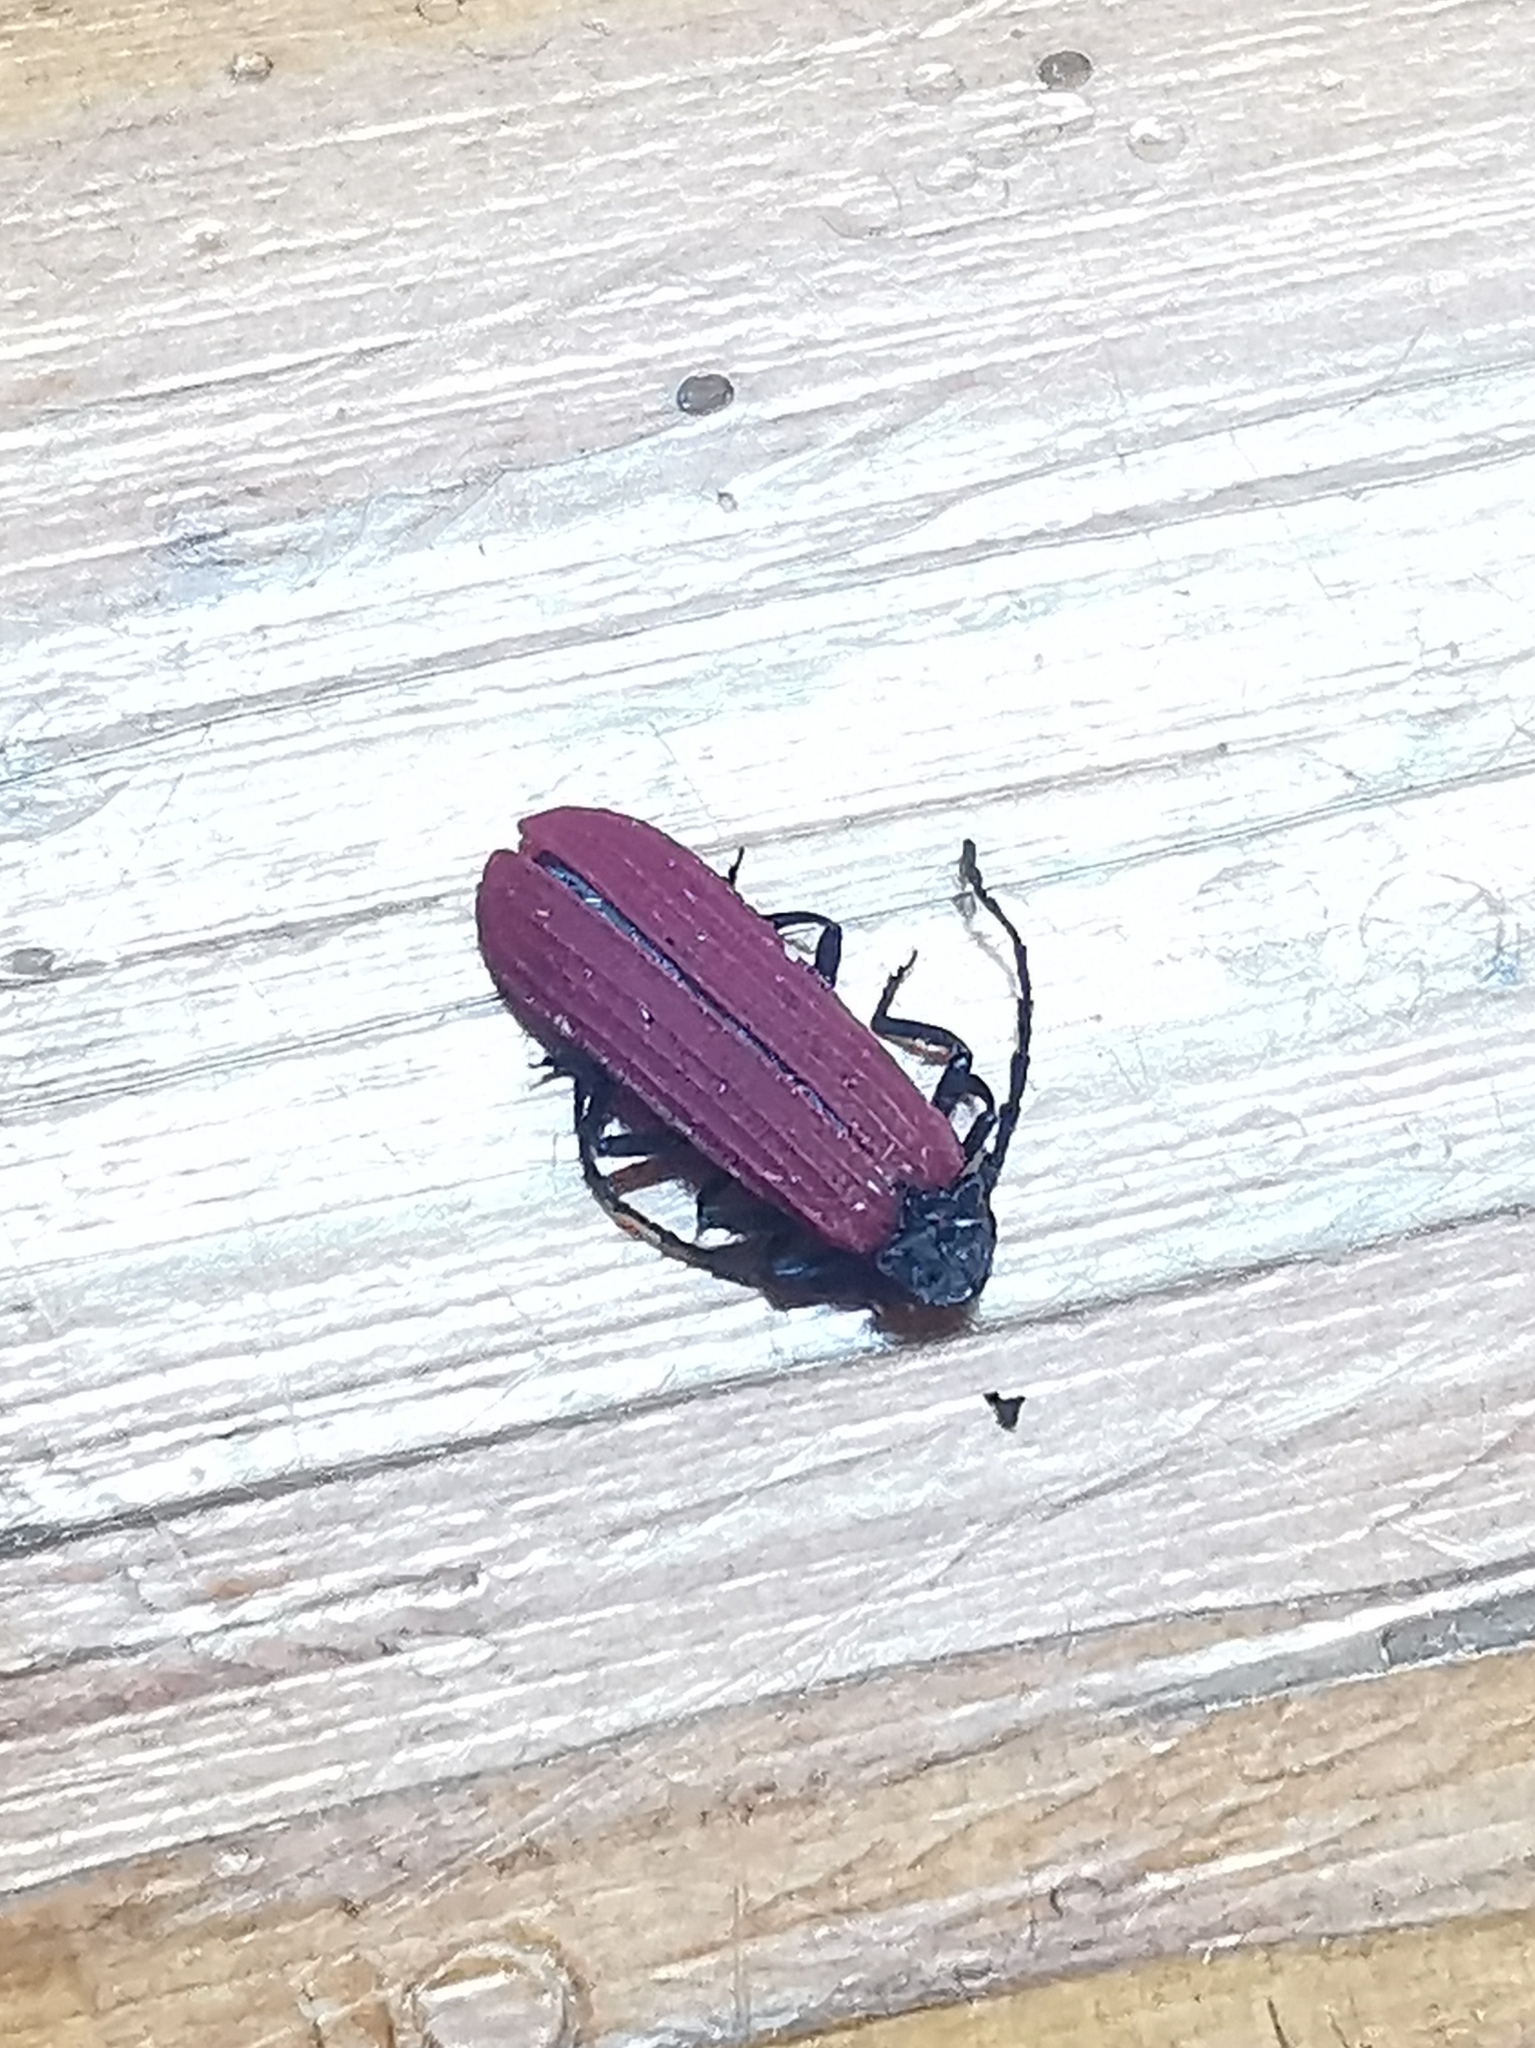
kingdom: Animalia
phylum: Arthropoda
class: Insecta
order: Coleoptera
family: Lycidae
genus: Xylobanellus
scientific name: Xylobanellus erythropterus
